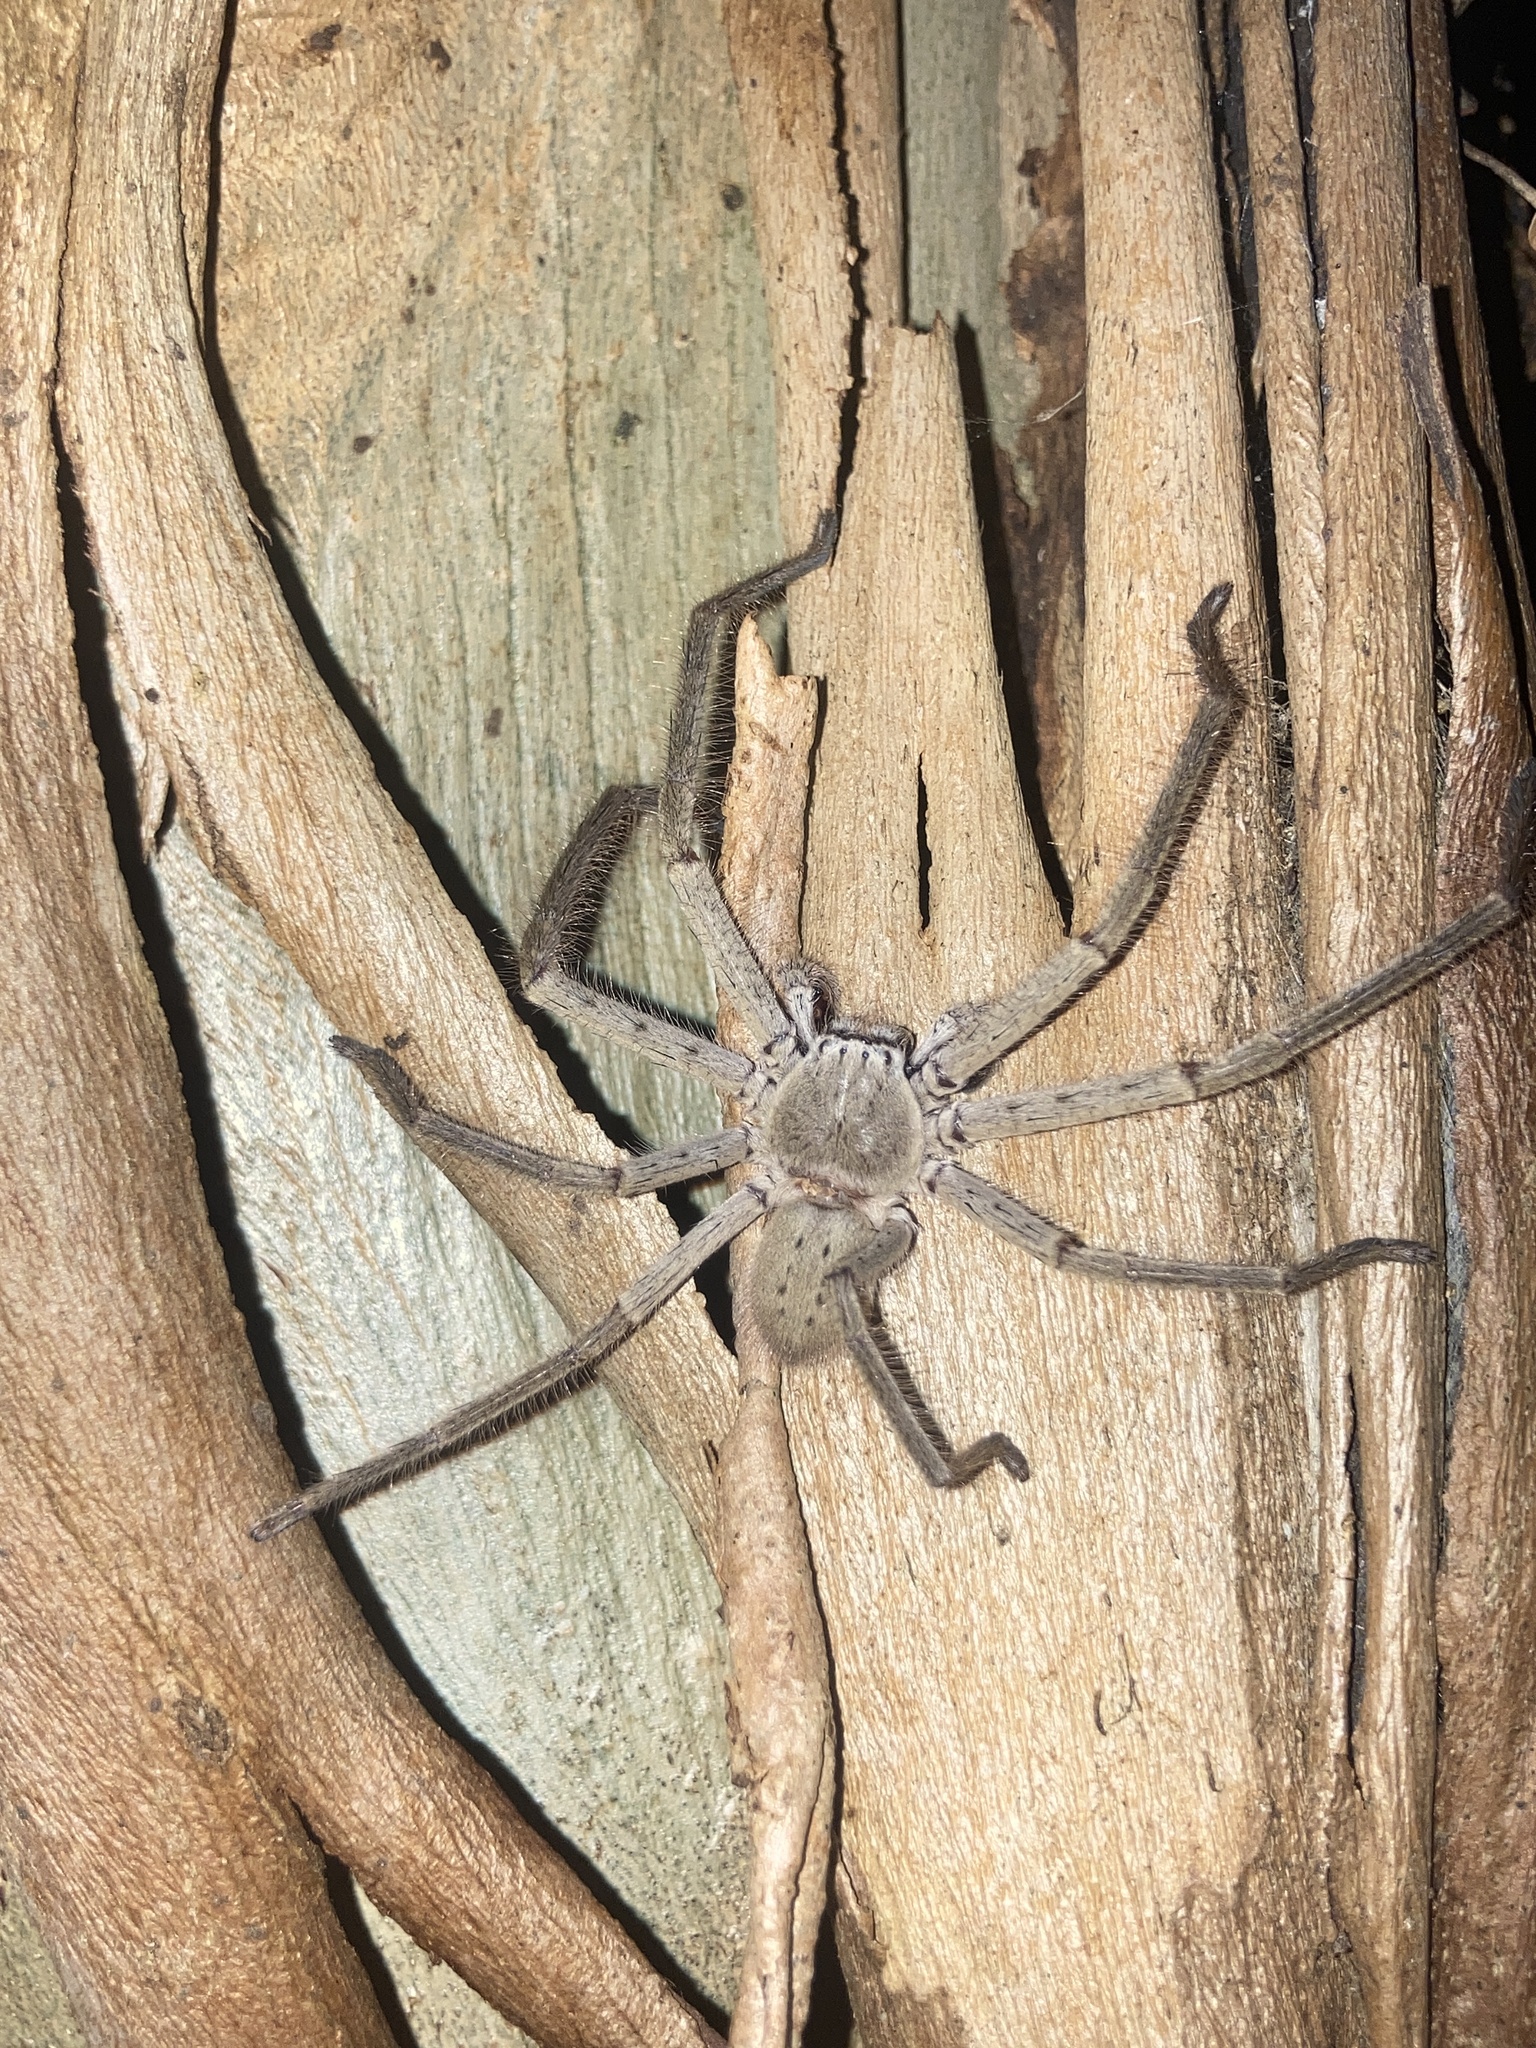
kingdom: Animalia
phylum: Arthropoda
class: Arachnida
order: Araneae
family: Sparassidae
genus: Isopeda
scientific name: Isopeda villosa
